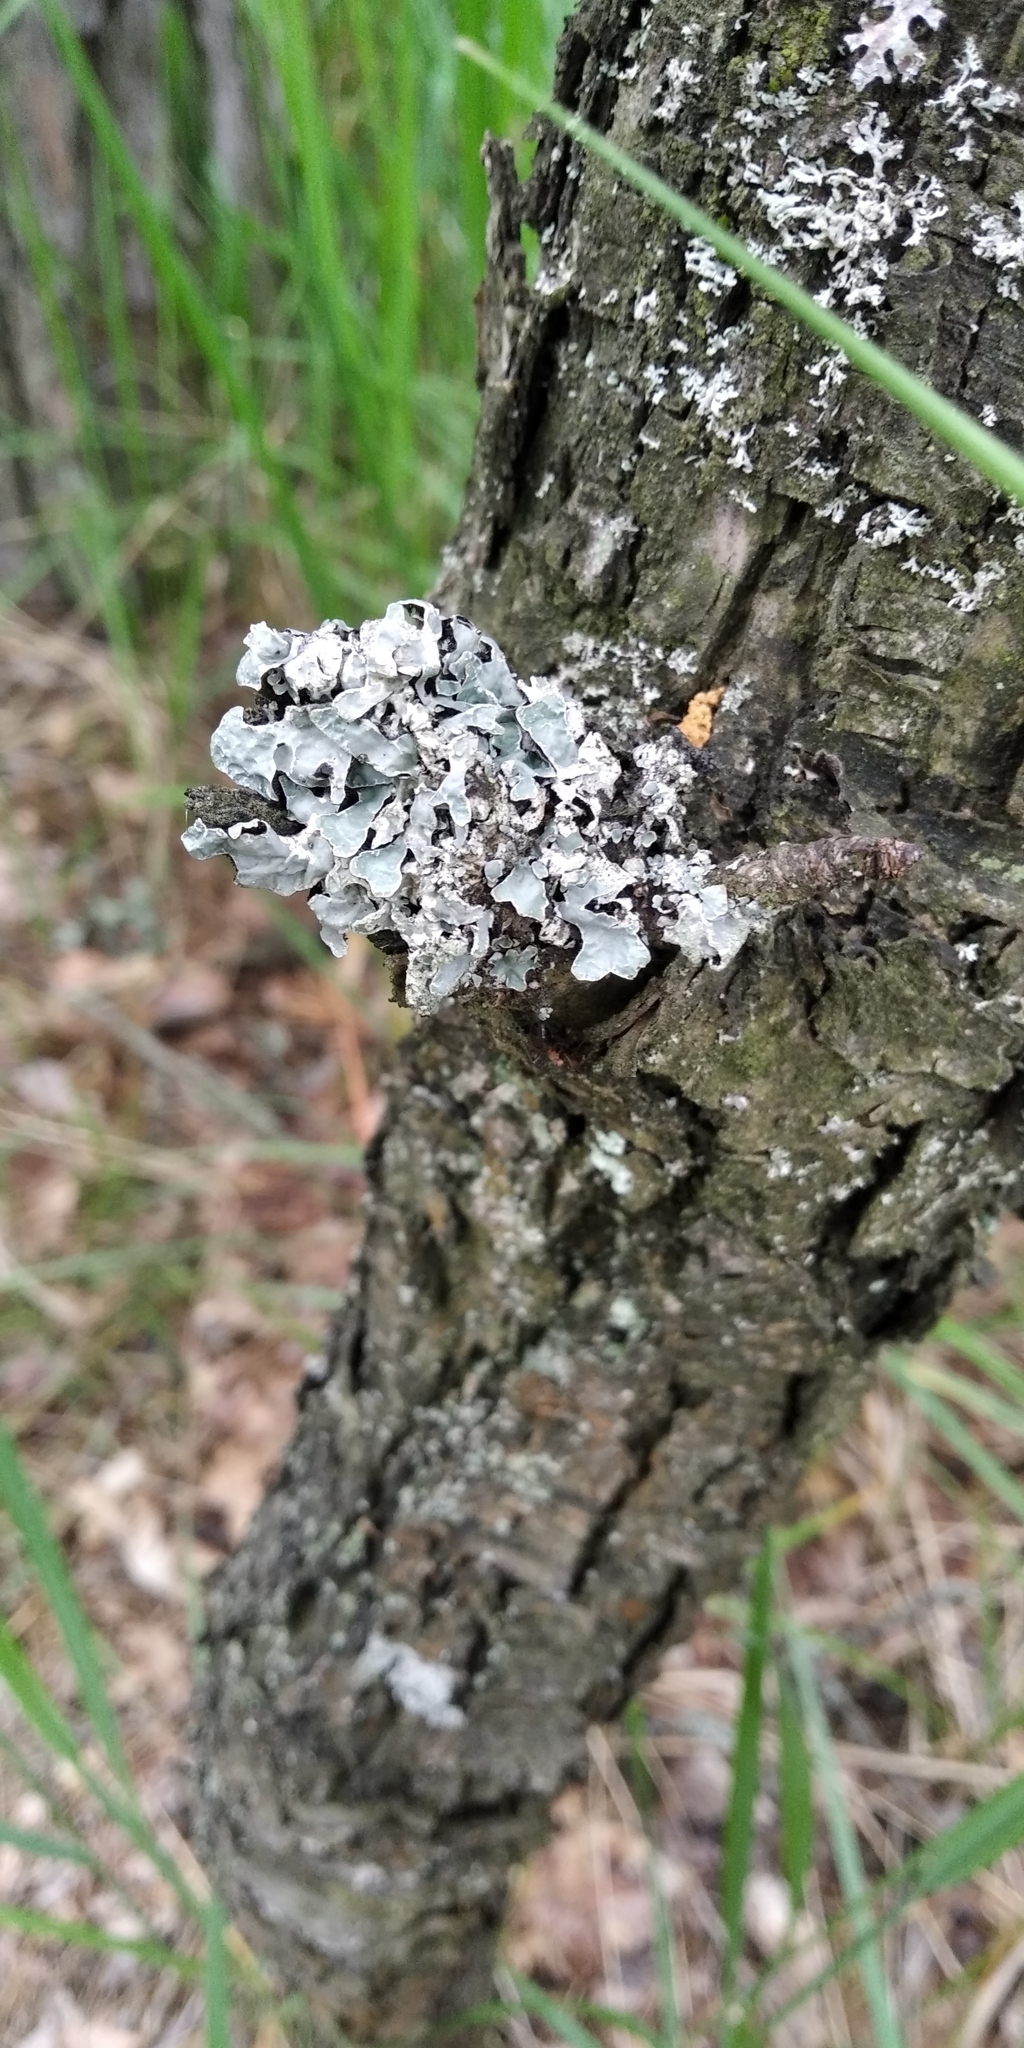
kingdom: Fungi
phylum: Ascomycota
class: Lecanoromycetes
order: Lecanorales
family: Parmeliaceae
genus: Parmelia
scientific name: Parmelia sulcata
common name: Netted shield lichen
